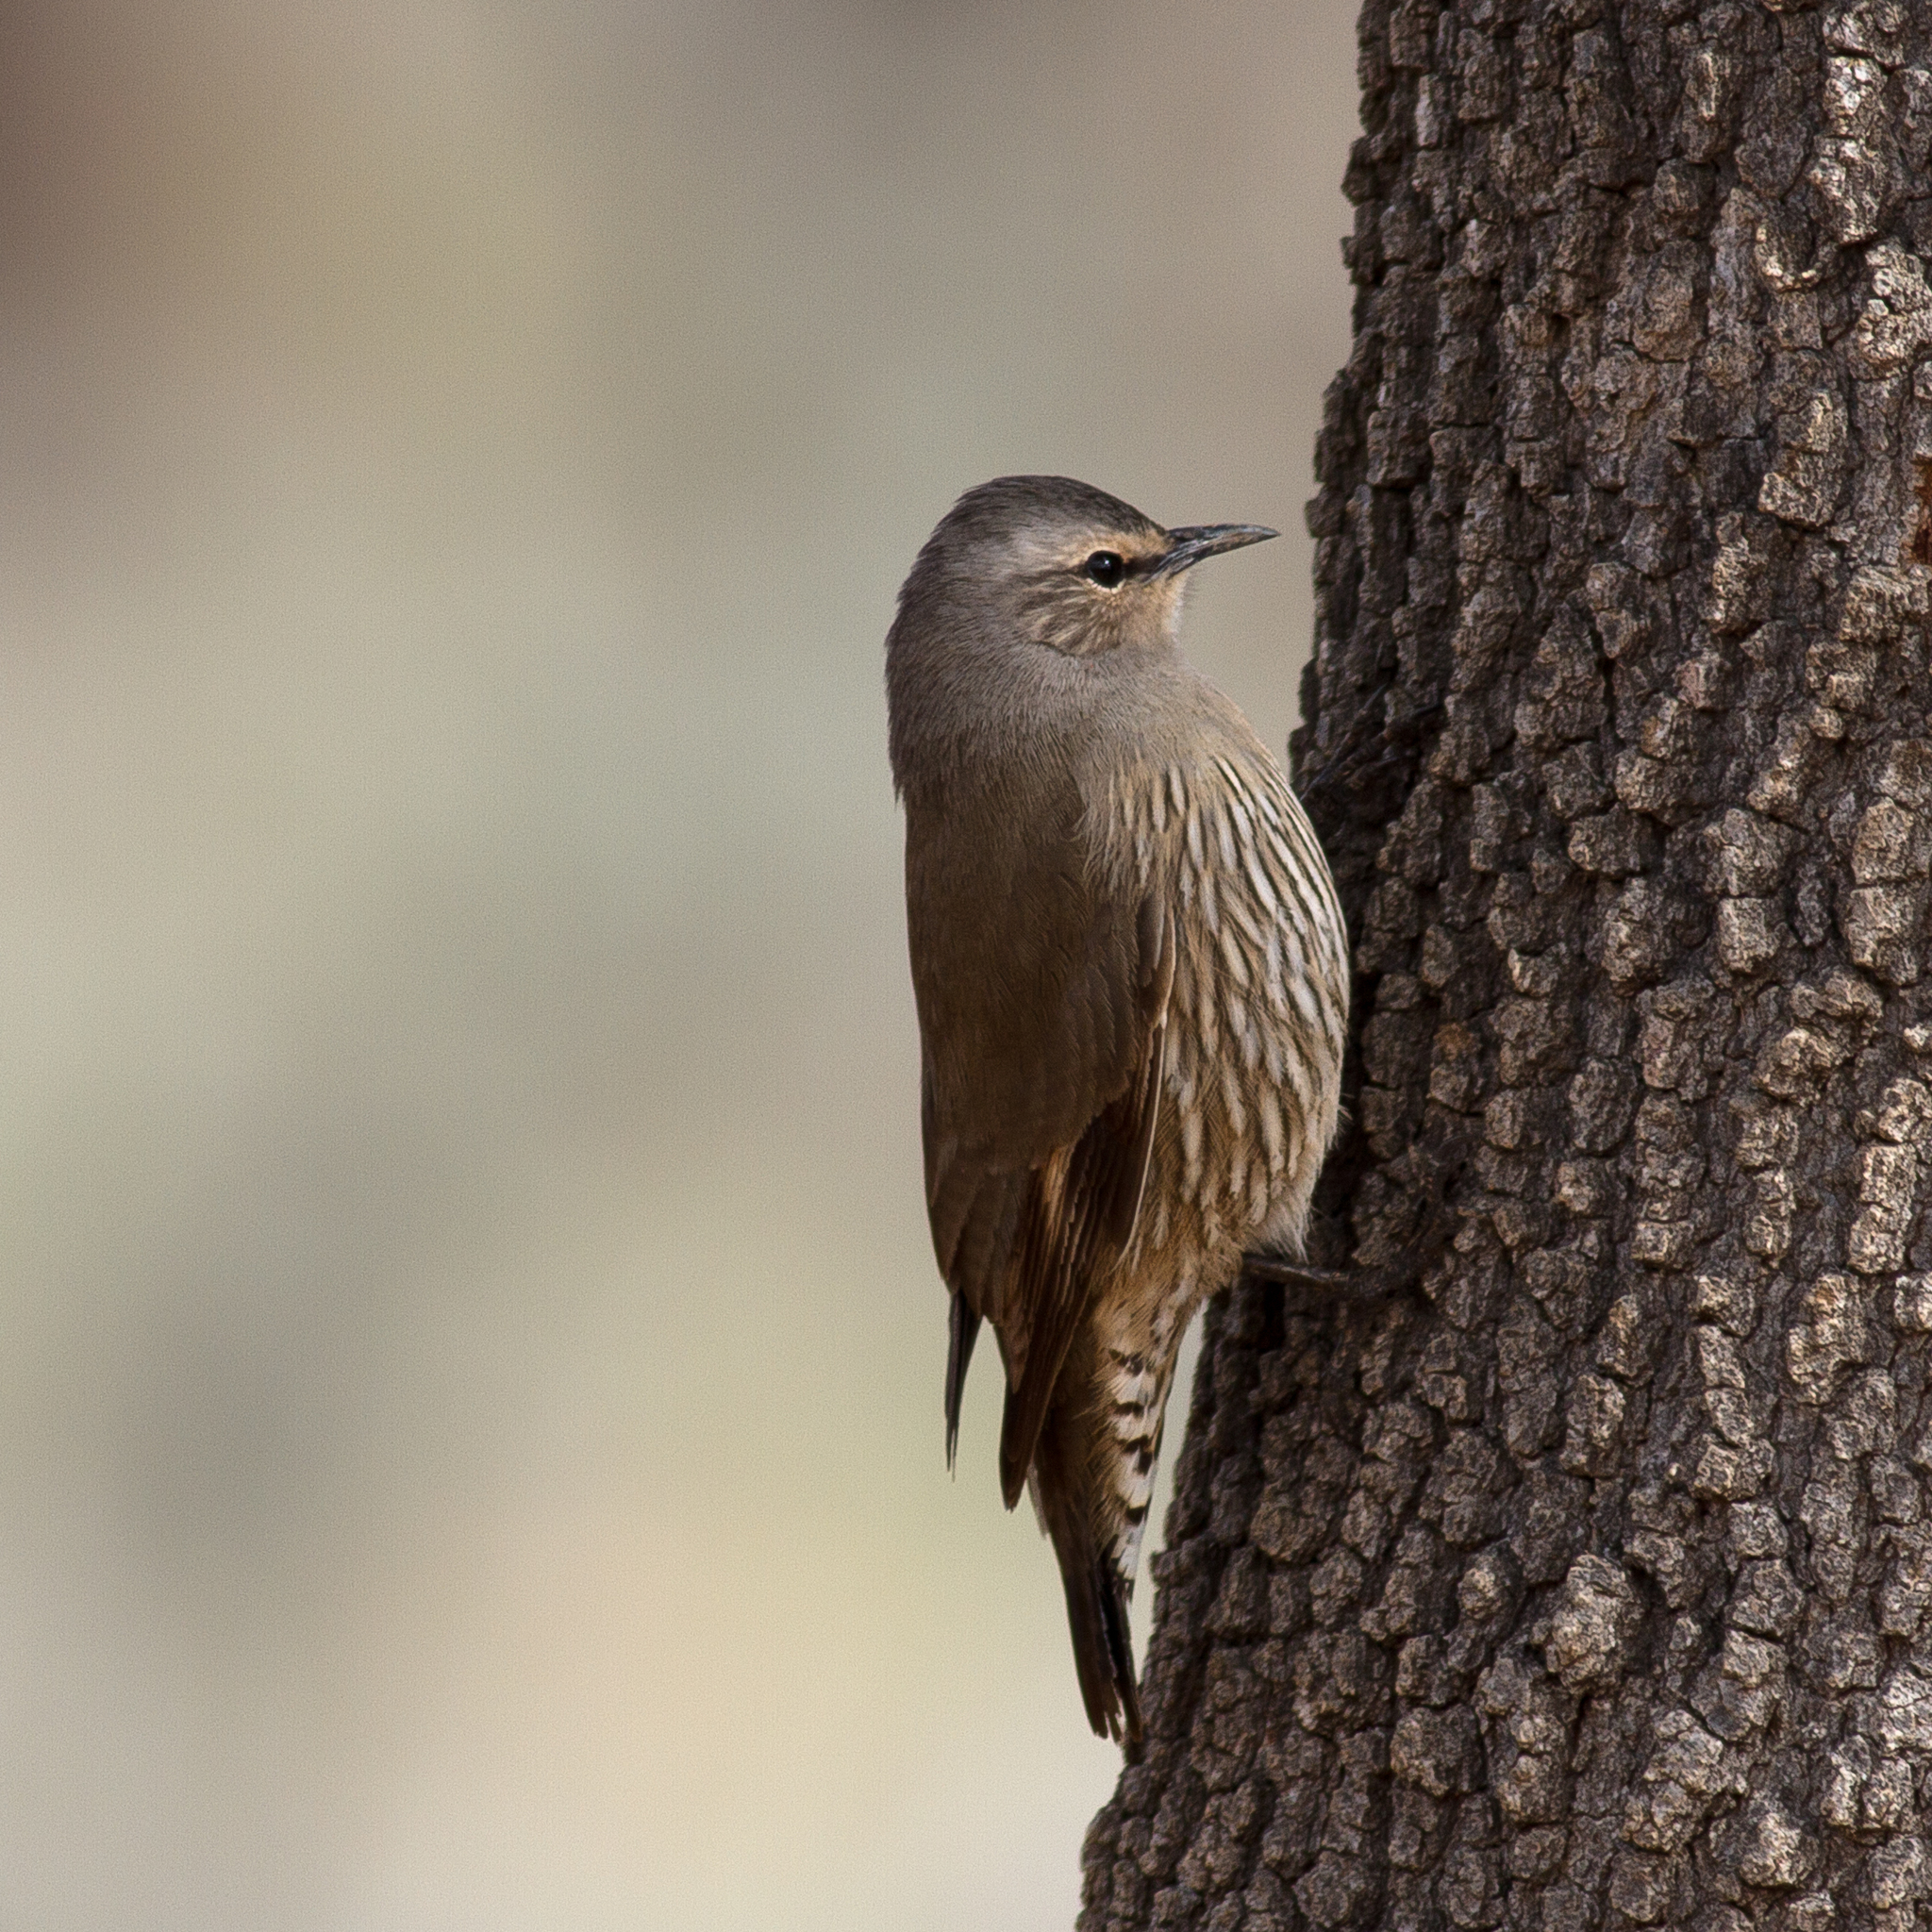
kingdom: Animalia
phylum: Chordata
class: Aves
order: Passeriformes
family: Climacteridae
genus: Climacteris
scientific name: Climacteris picumnus
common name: Brown treecreeper
